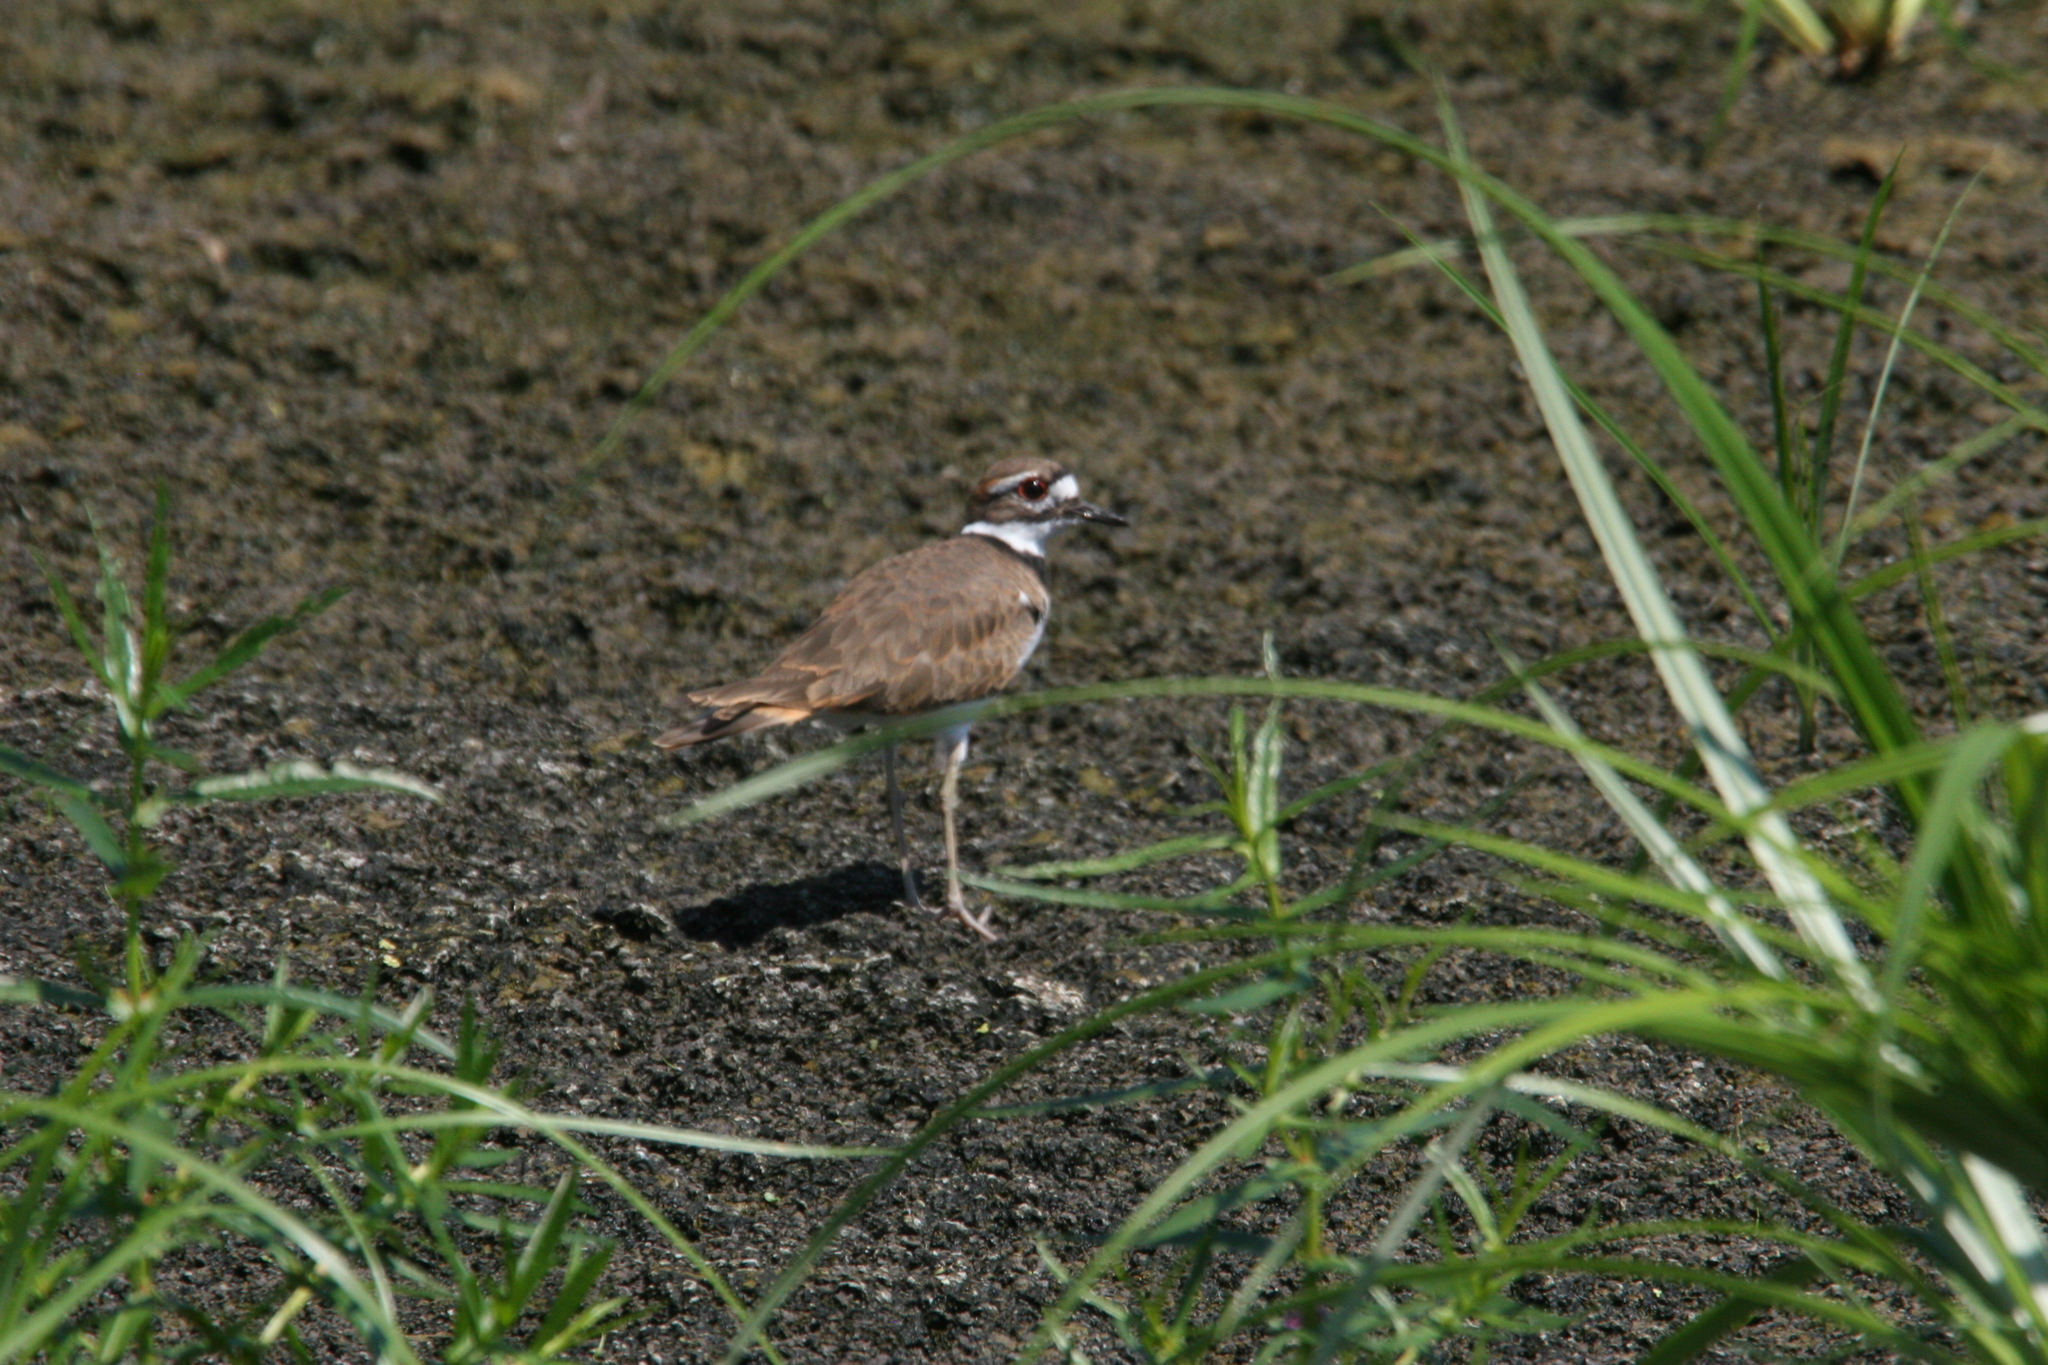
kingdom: Animalia
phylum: Chordata
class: Aves
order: Charadriiformes
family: Charadriidae
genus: Charadrius
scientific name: Charadrius vociferus
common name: Killdeer
